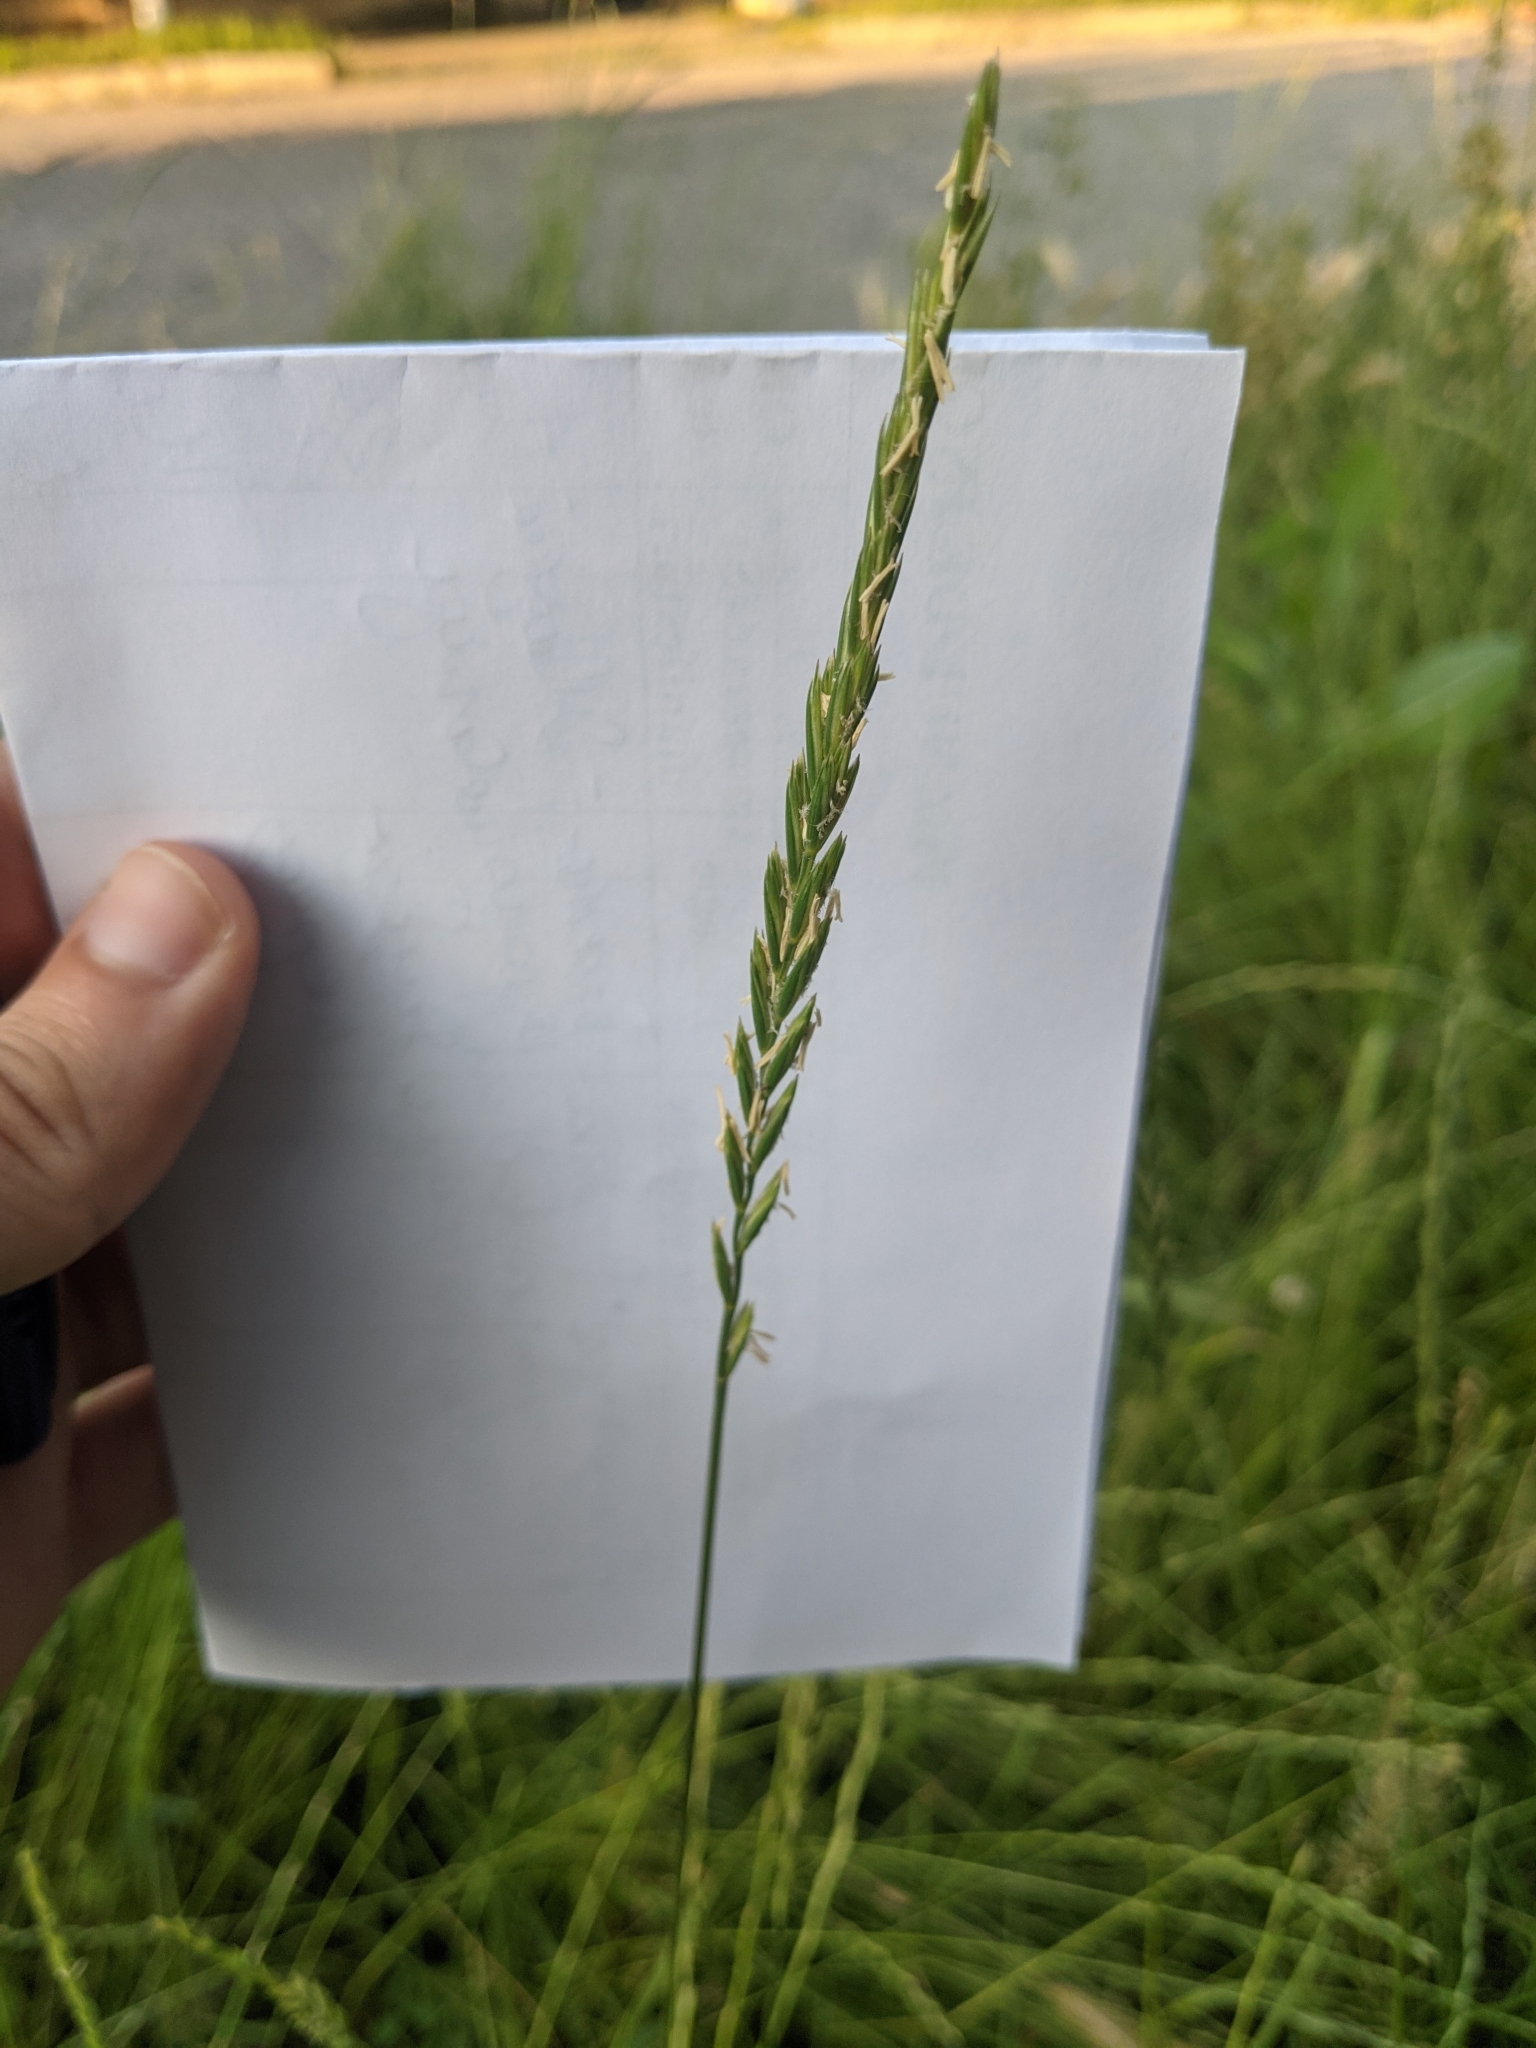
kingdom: Plantae
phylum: Tracheophyta
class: Liliopsida
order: Poales
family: Poaceae
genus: Elymus
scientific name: Elymus repens
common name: Quackgrass
